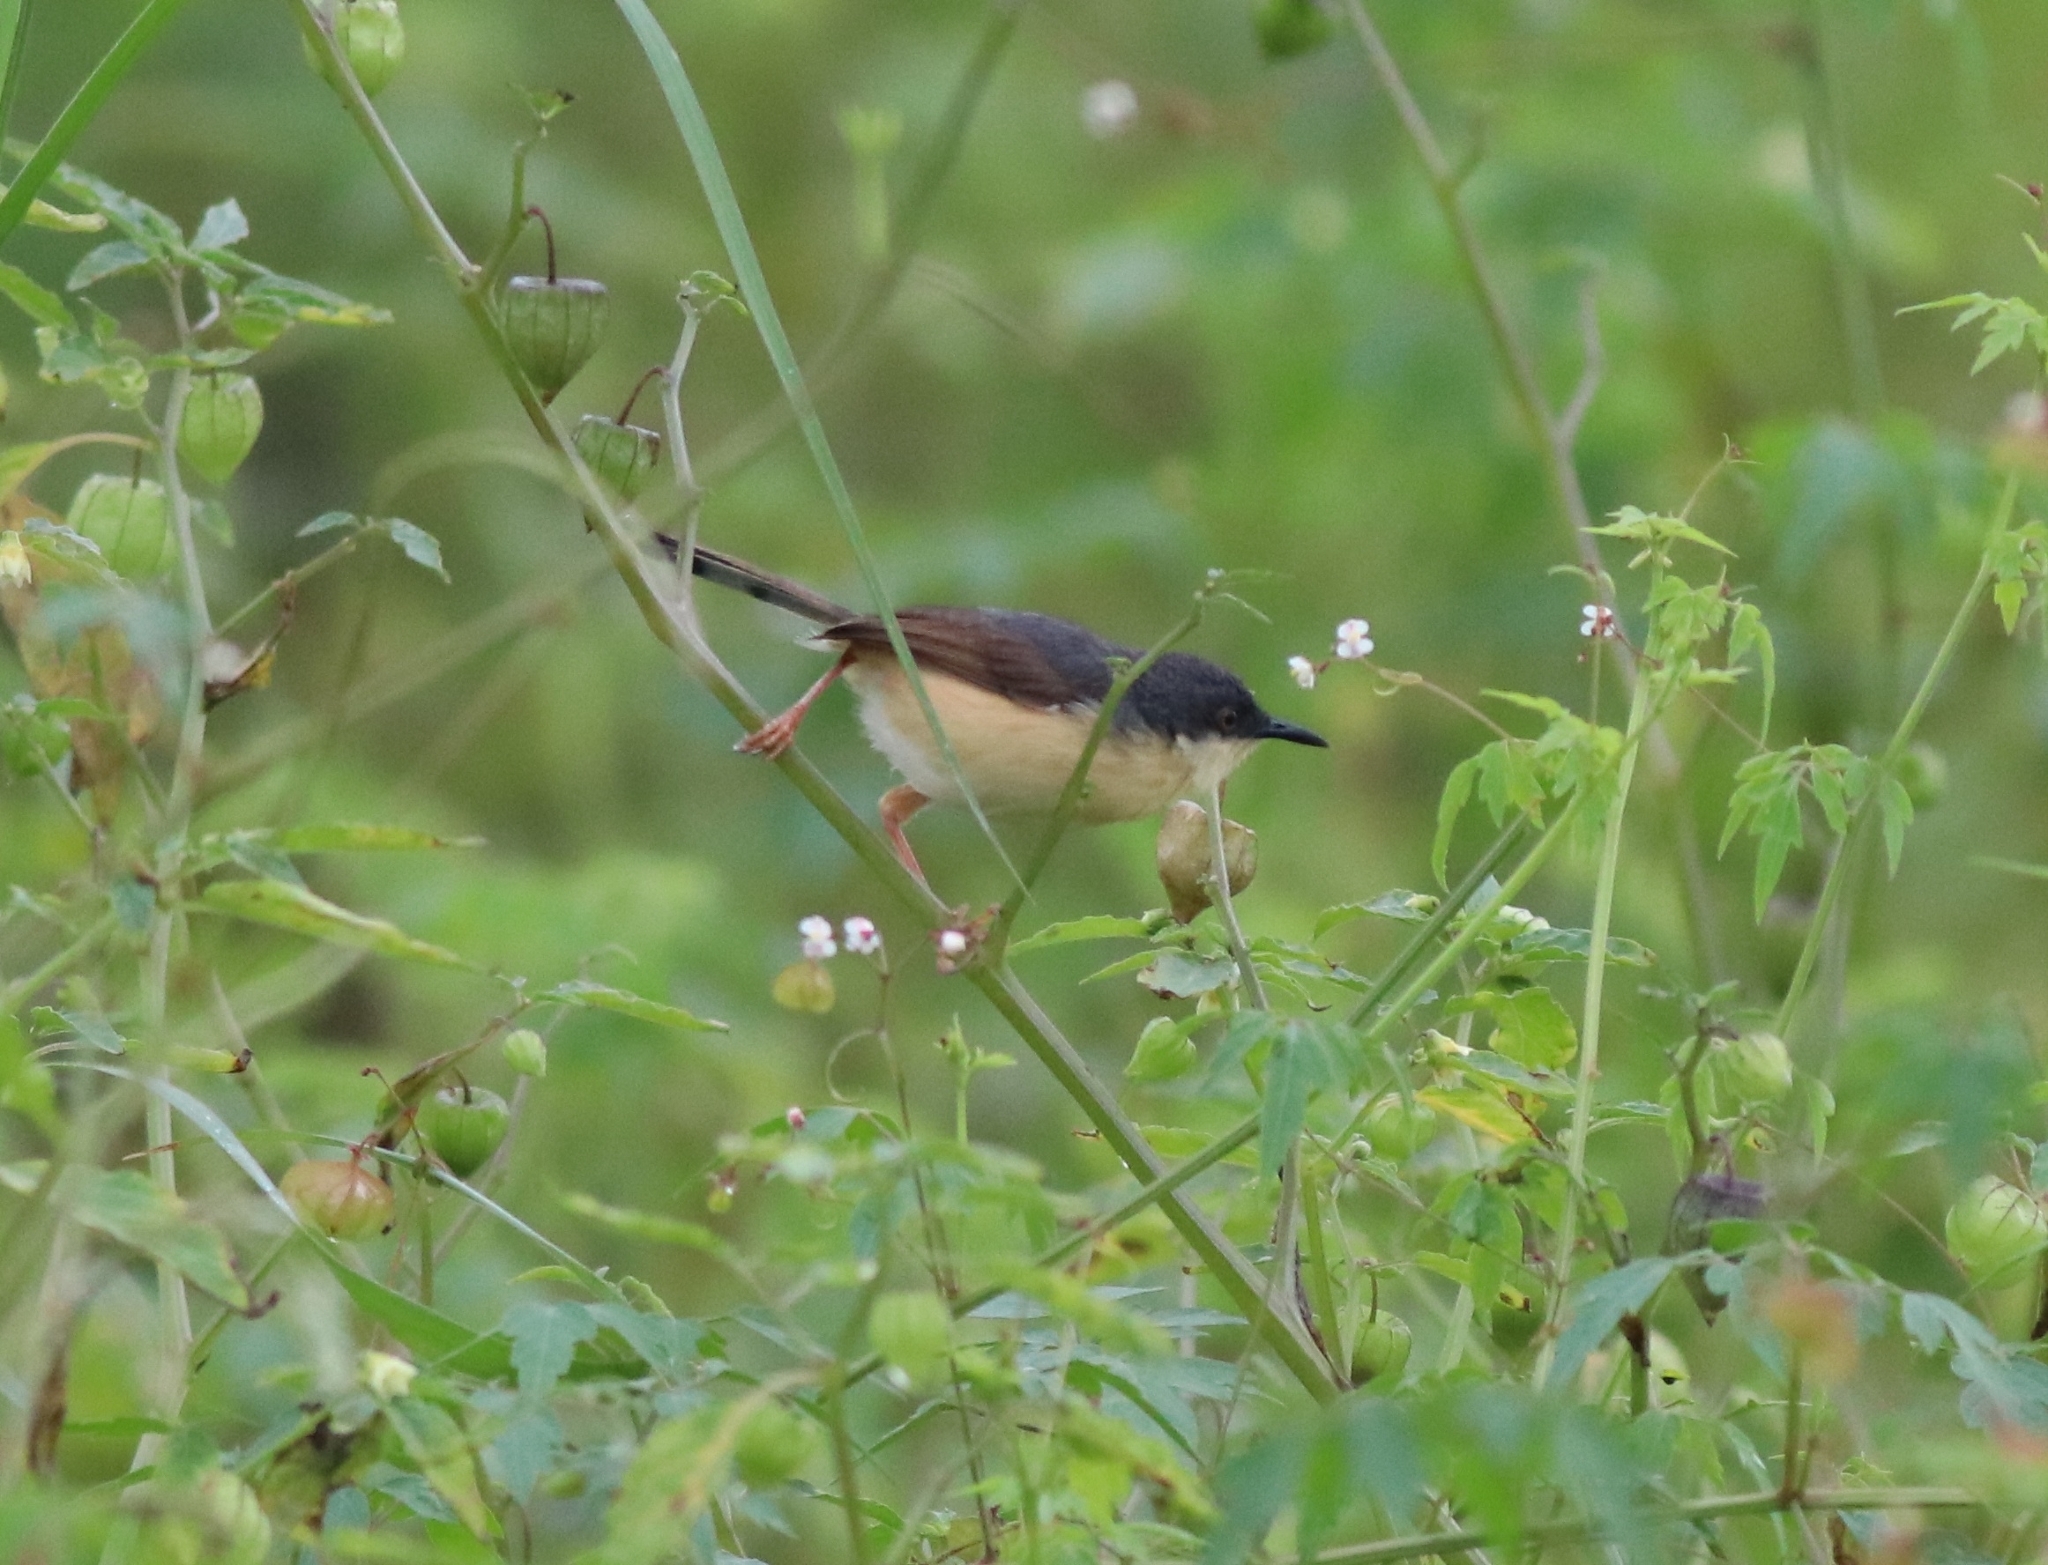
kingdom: Animalia
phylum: Chordata
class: Aves
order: Passeriformes
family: Cisticolidae
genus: Prinia
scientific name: Prinia socialis
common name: Ashy prinia
